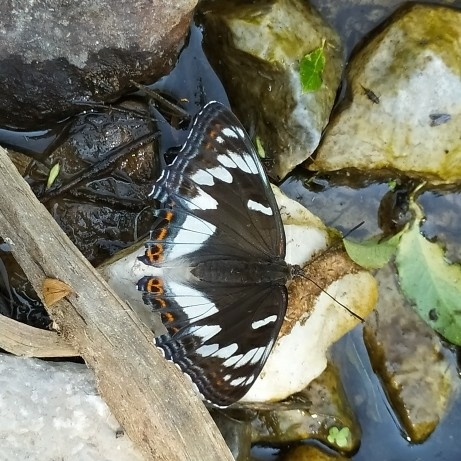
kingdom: Animalia
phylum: Arthropoda
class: Insecta
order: Lepidoptera
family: Nymphalidae
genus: Limenitis
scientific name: Limenitis populi
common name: Poplar admiral
